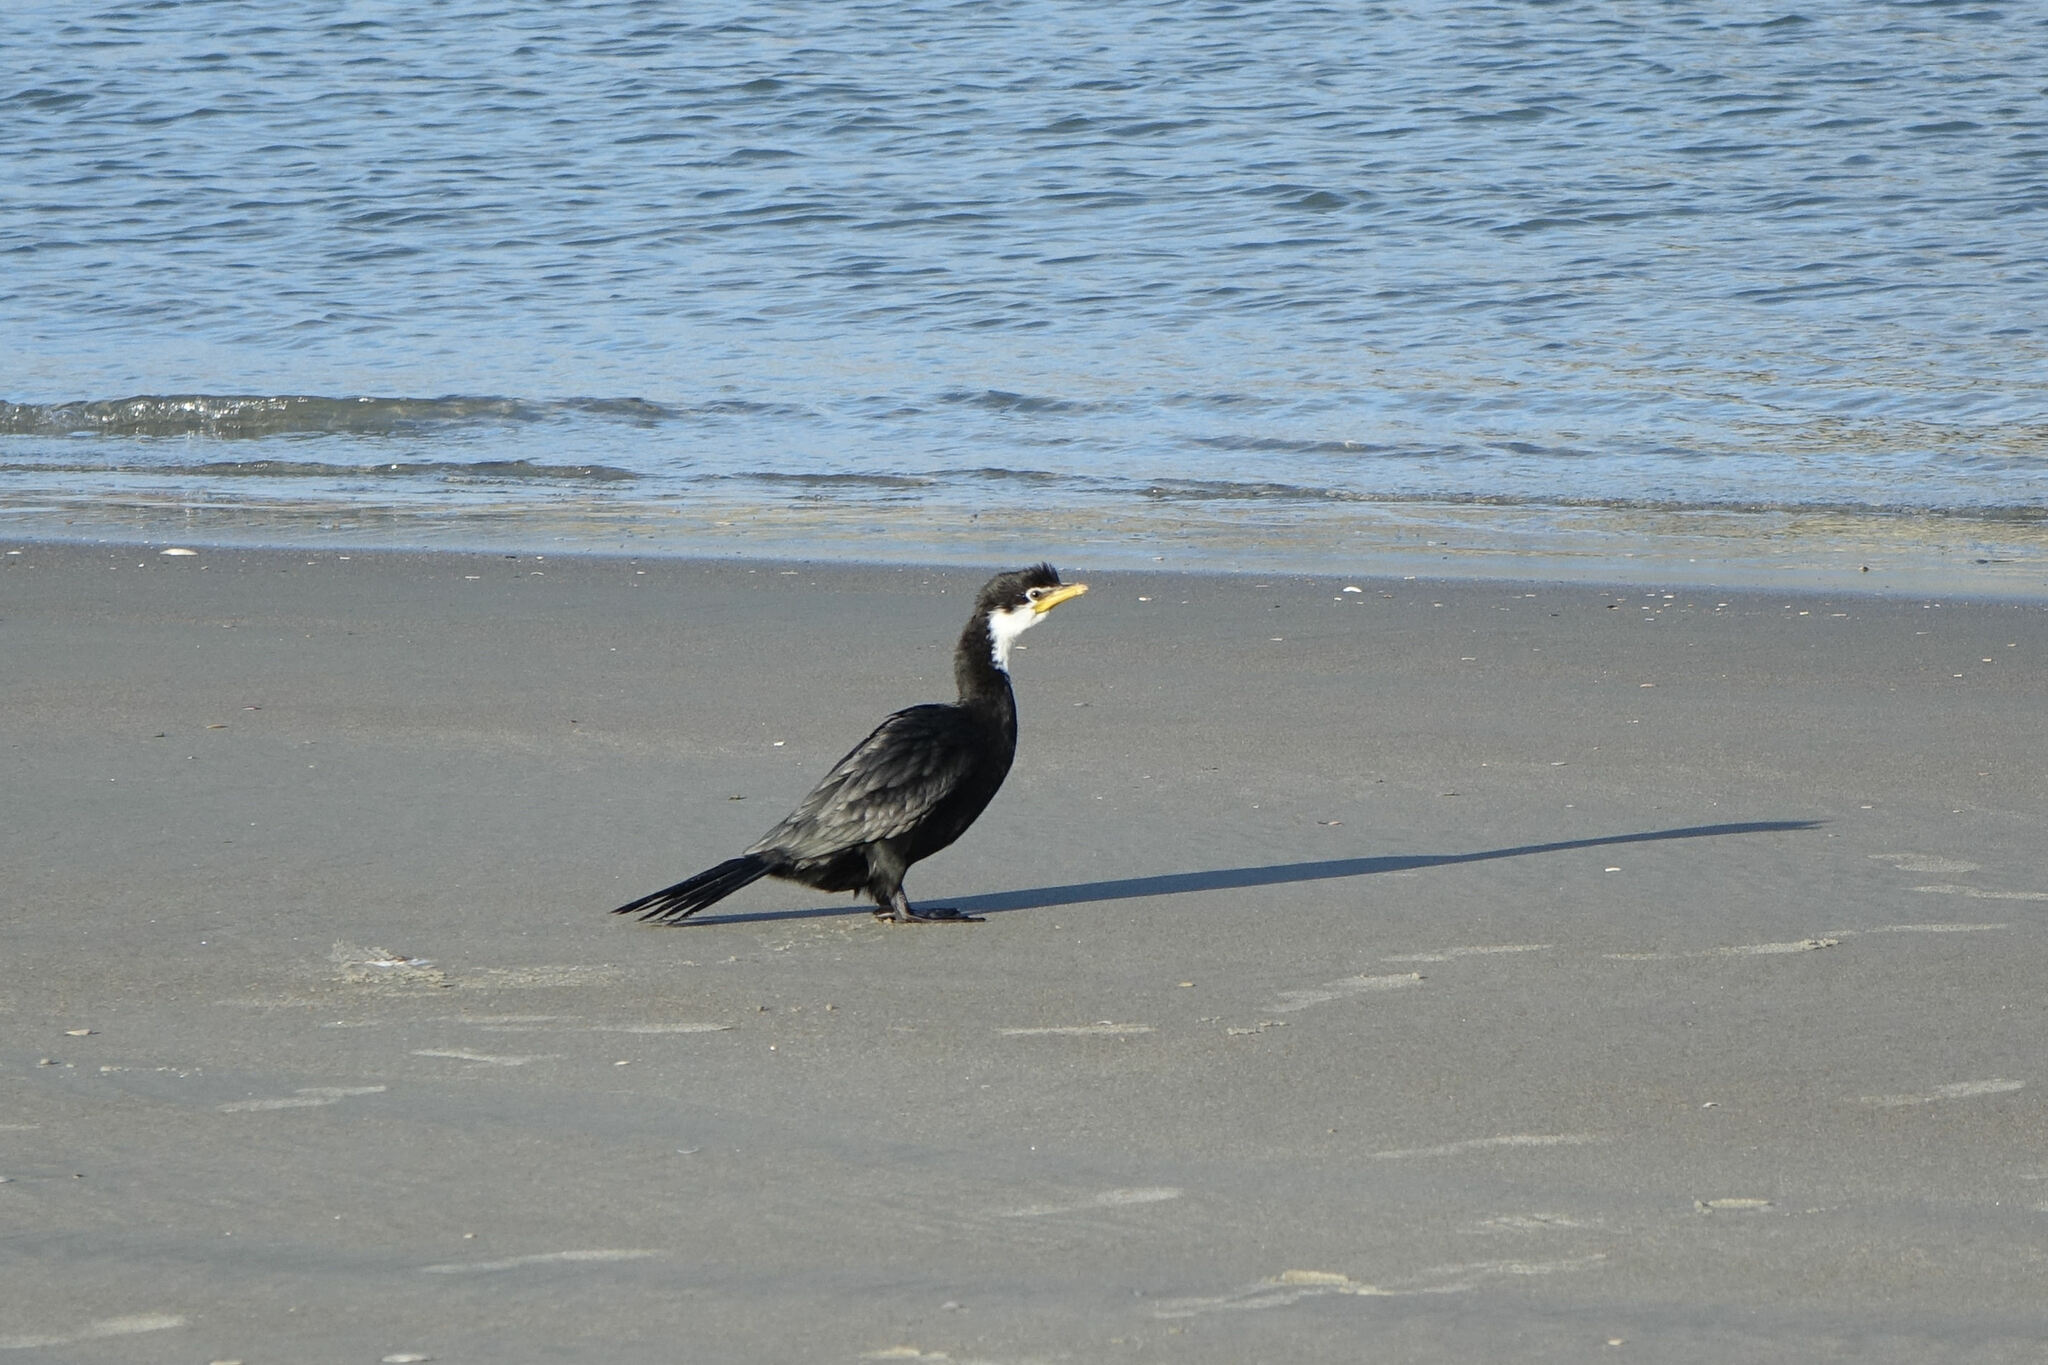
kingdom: Animalia
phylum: Chordata
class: Aves
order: Suliformes
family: Phalacrocoracidae
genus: Microcarbo
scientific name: Microcarbo melanoleucos
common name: Little pied cormorant
